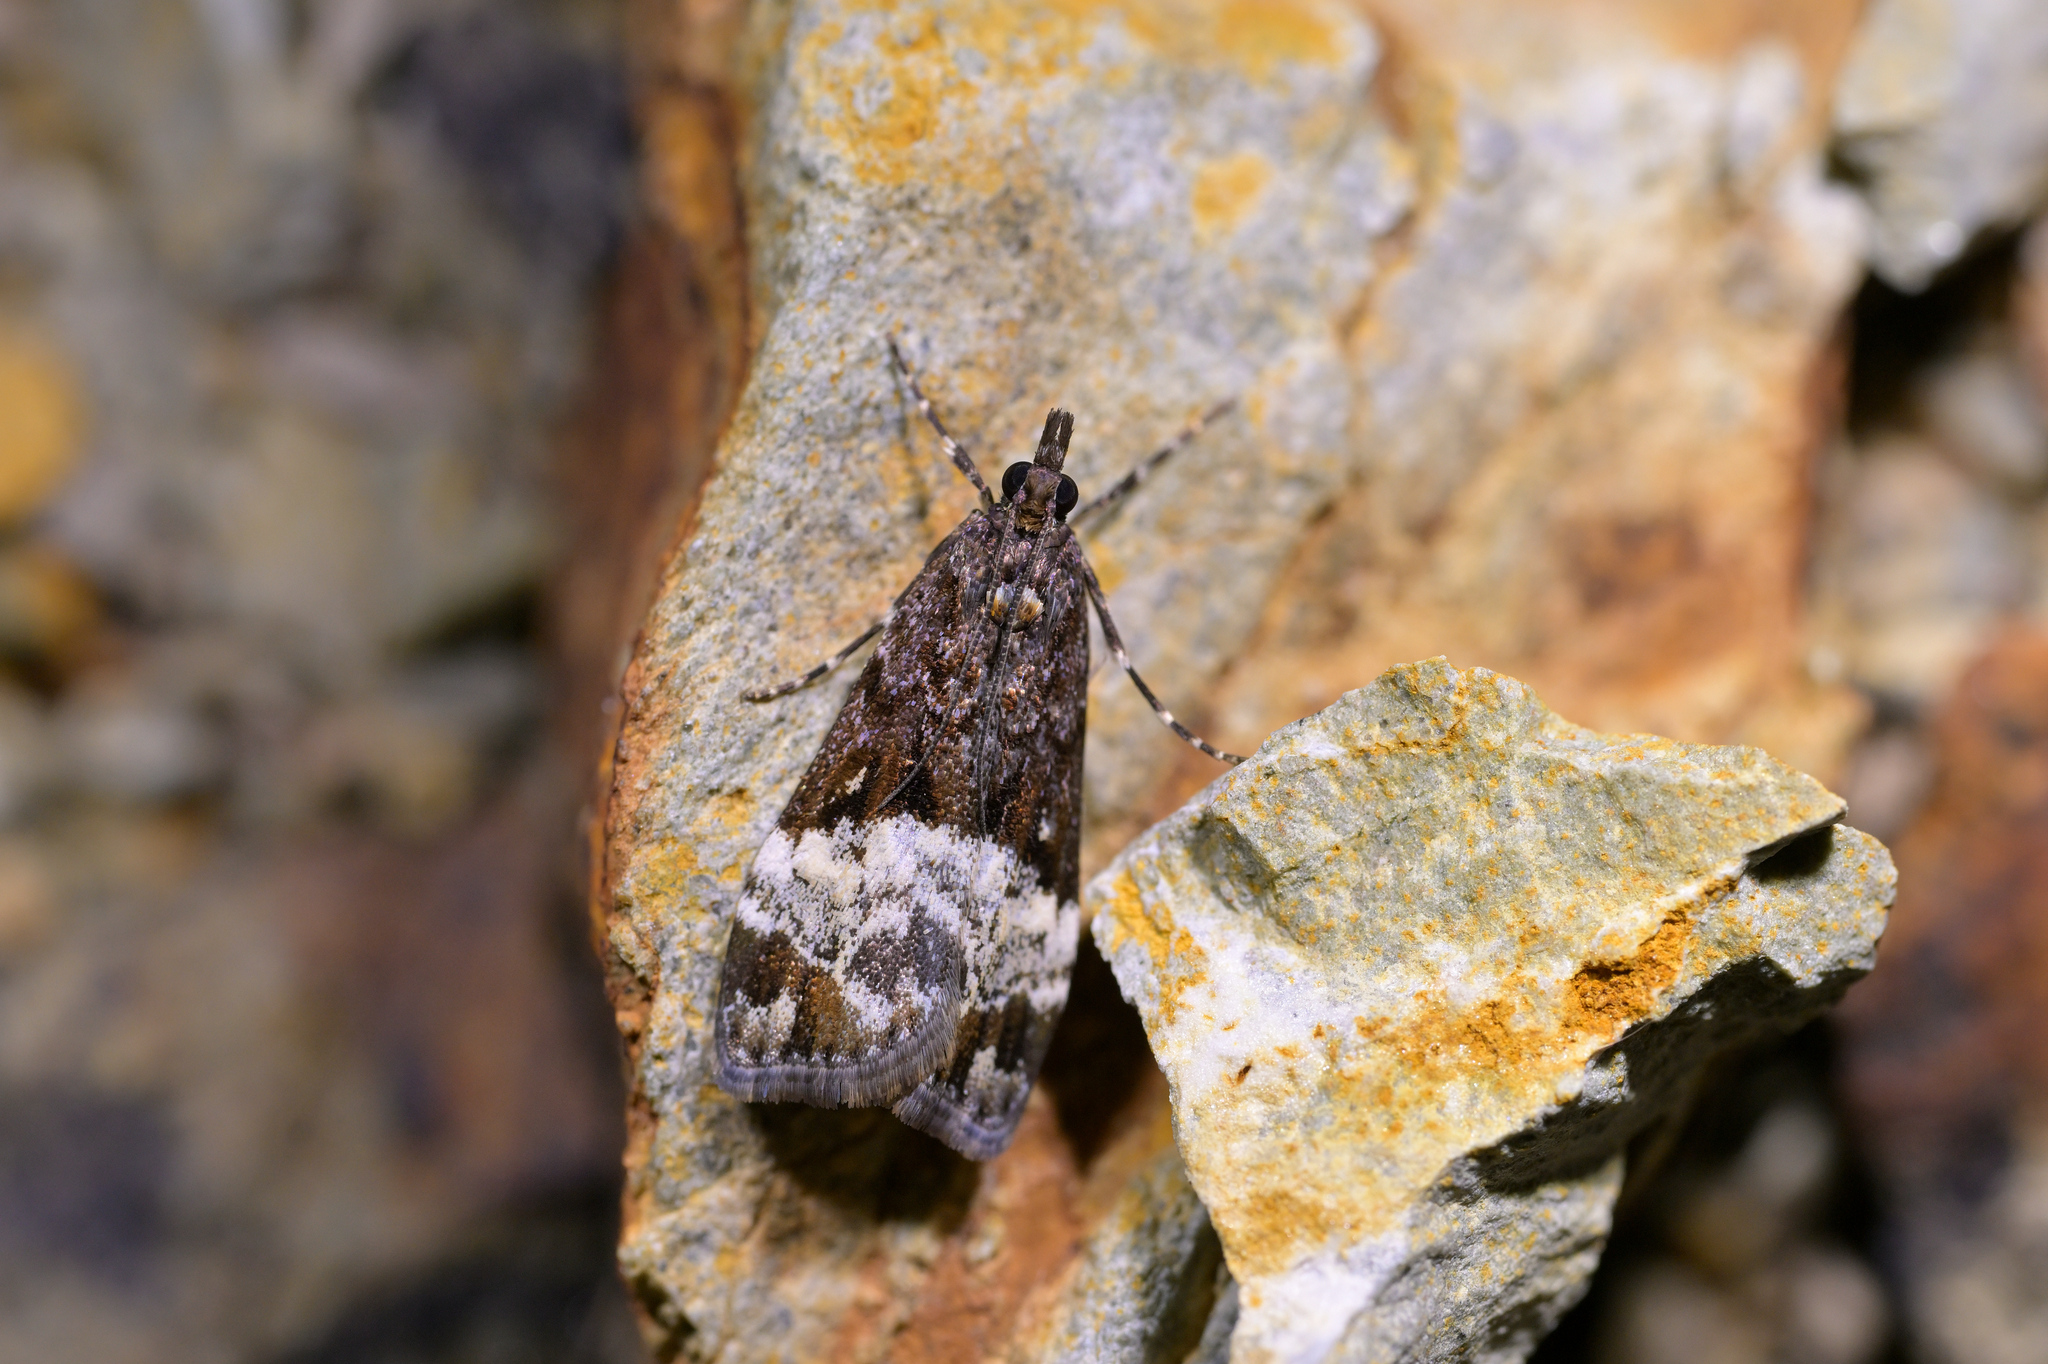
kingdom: Animalia
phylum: Arthropoda
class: Insecta
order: Lepidoptera
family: Crambidae
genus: Scoparia
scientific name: Scoparia minusculalis
